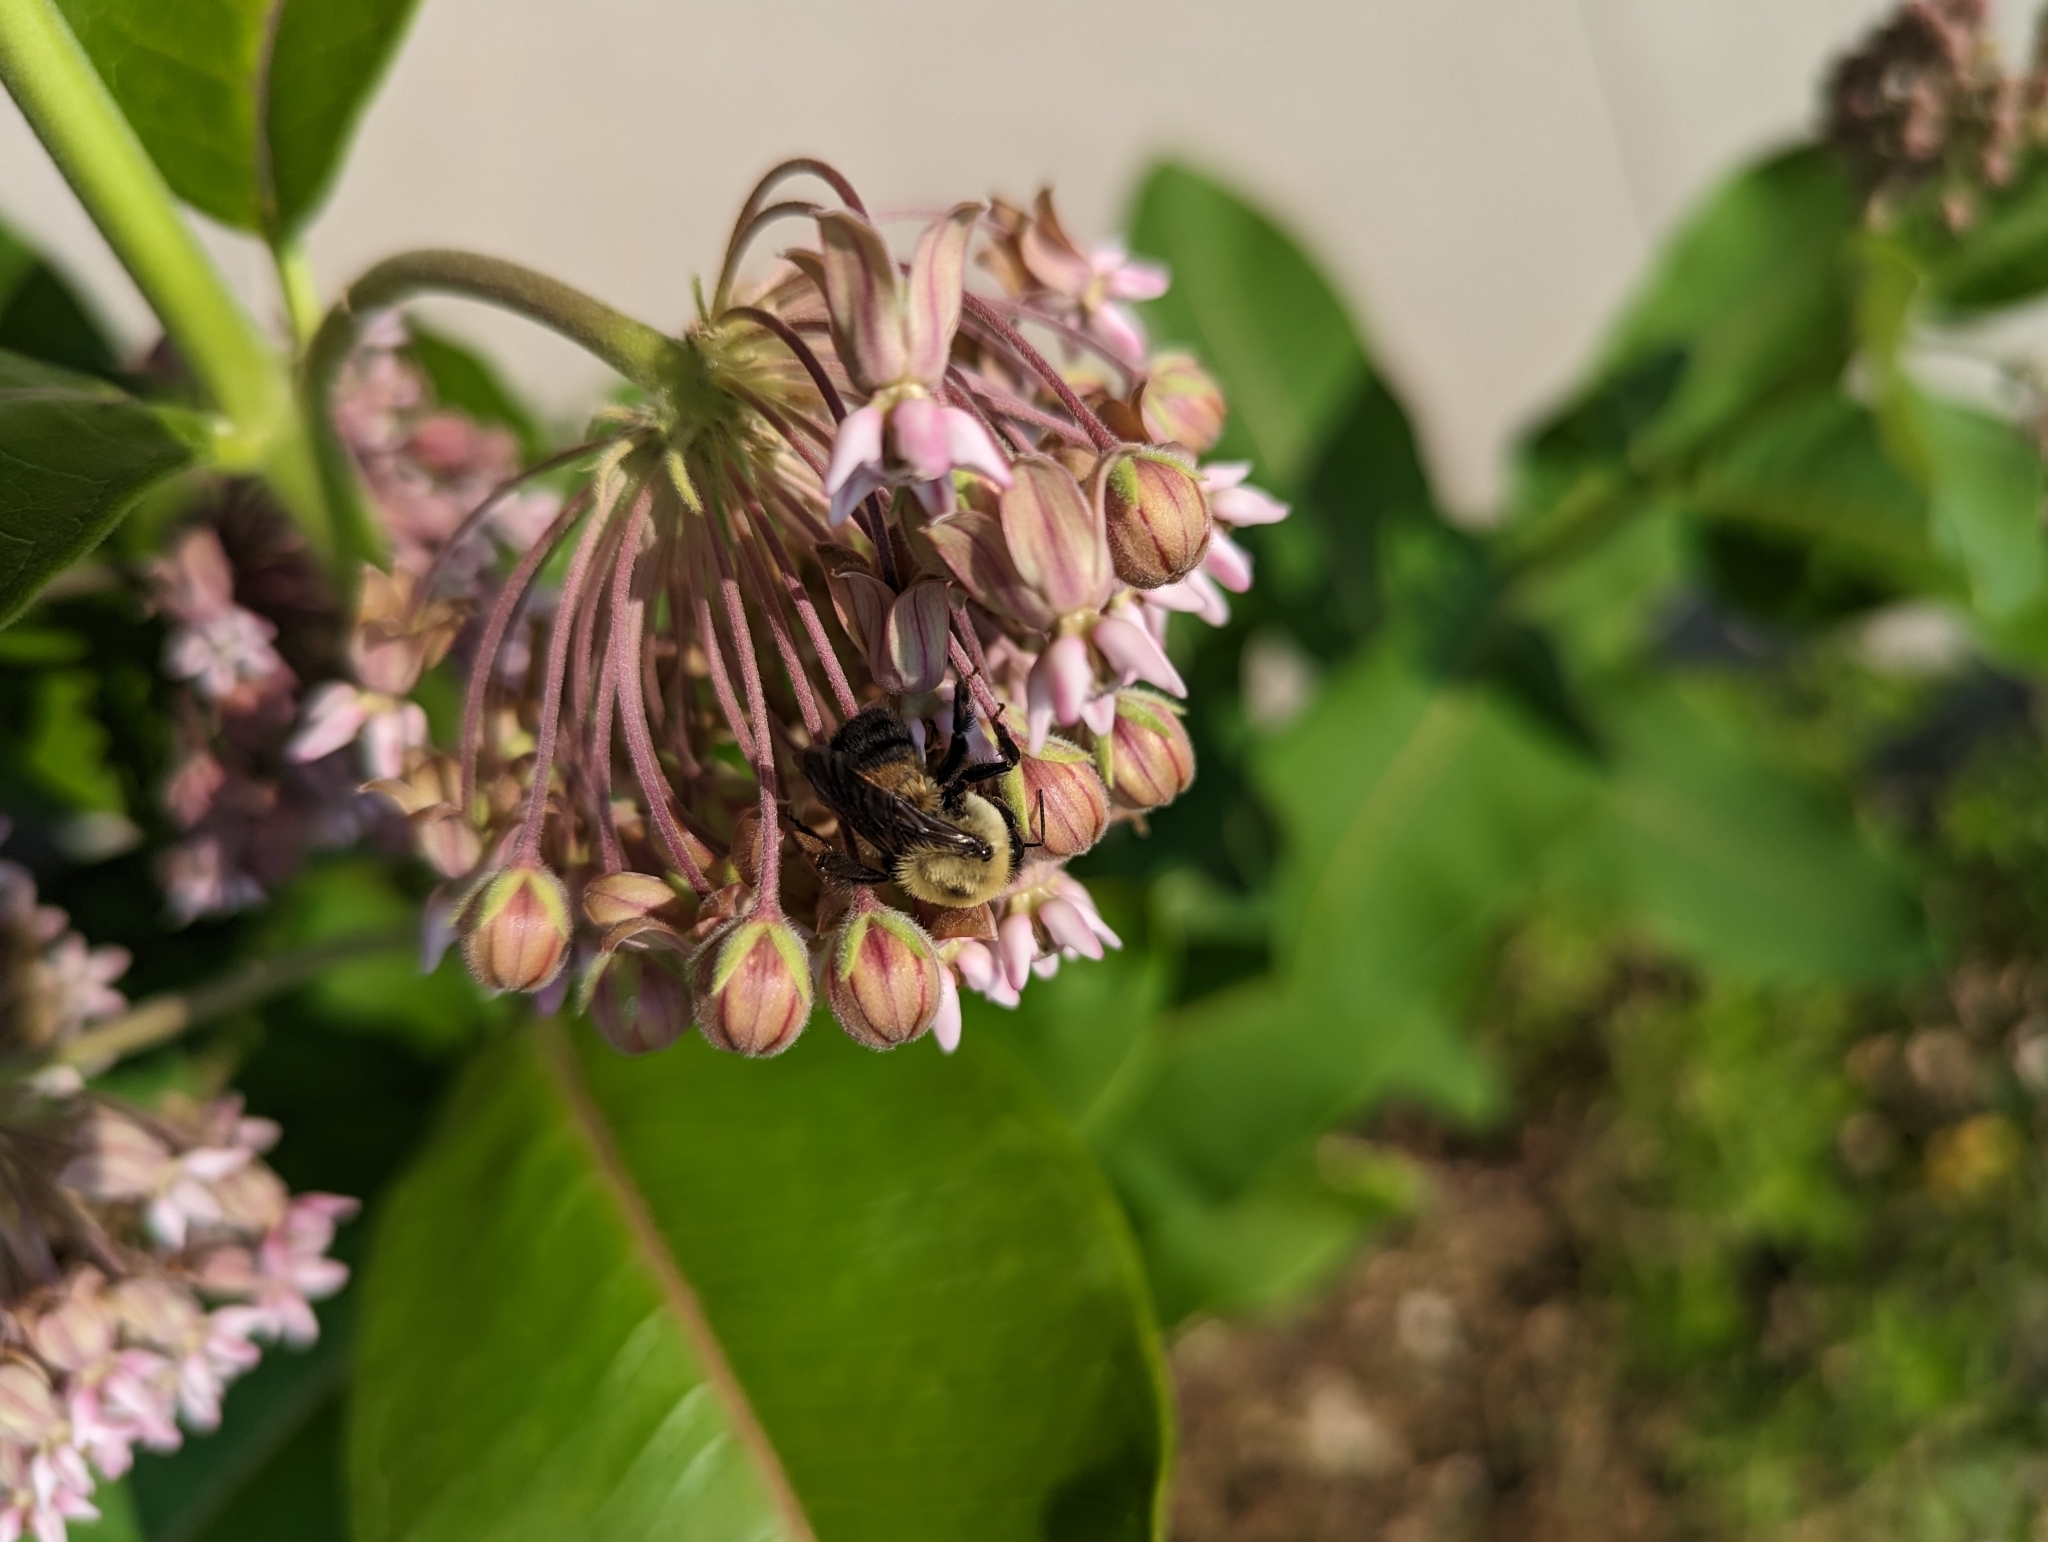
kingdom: Animalia
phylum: Arthropoda
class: Insecta
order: Hymenoptera
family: Apidae
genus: Bombus
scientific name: Bombus griseocollis
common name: Brown-belted bumble bee
